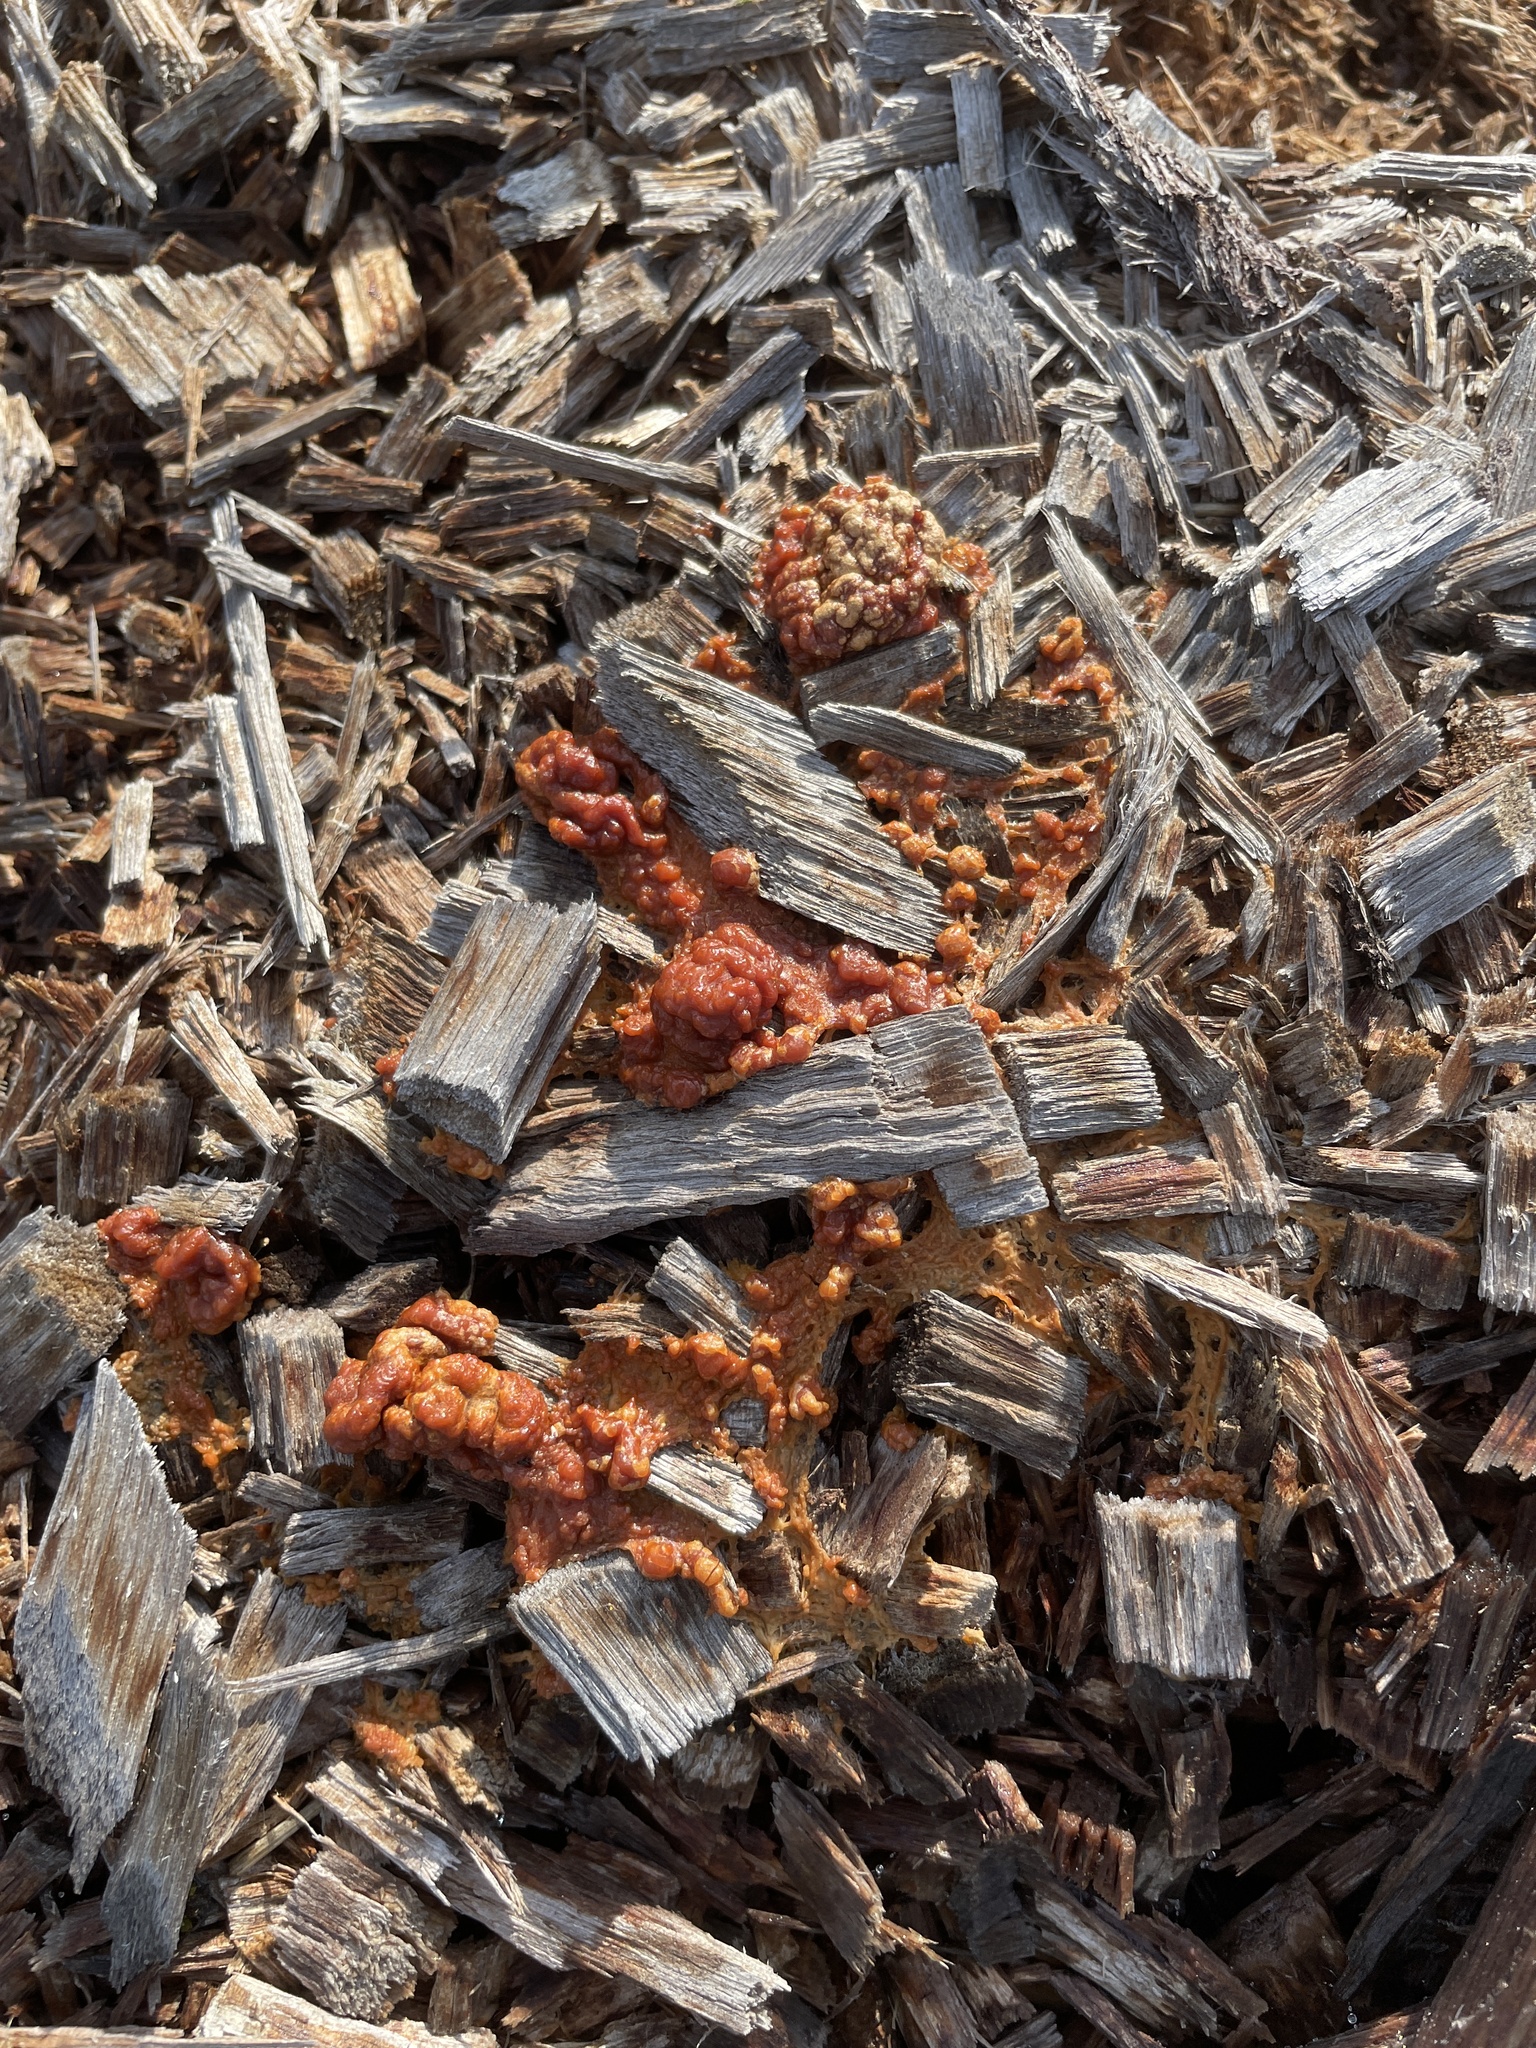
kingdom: Protozoa
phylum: Mycetozoa
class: Myxomycetes
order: Physarales
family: Physaraceae
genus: Fuligo
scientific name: Fuligo septica
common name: Dog vomit slime mold
